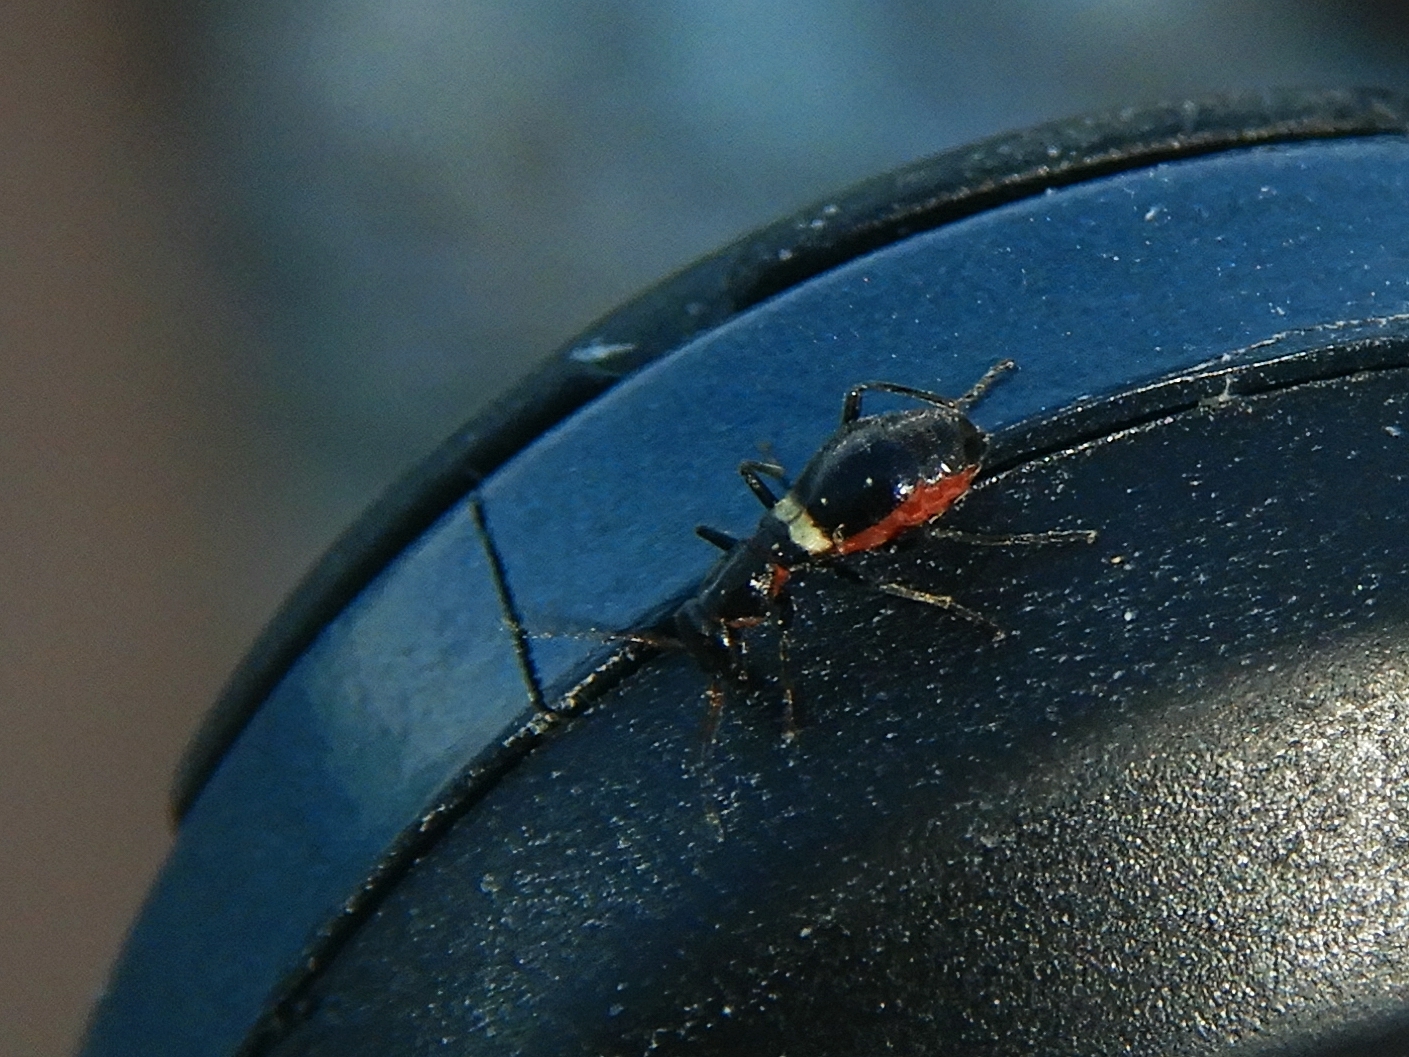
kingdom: Animalia
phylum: Arthropoda
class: Insecta
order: Coleoptera
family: Melyridae
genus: Brachemys
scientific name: Brachemys heydeni
